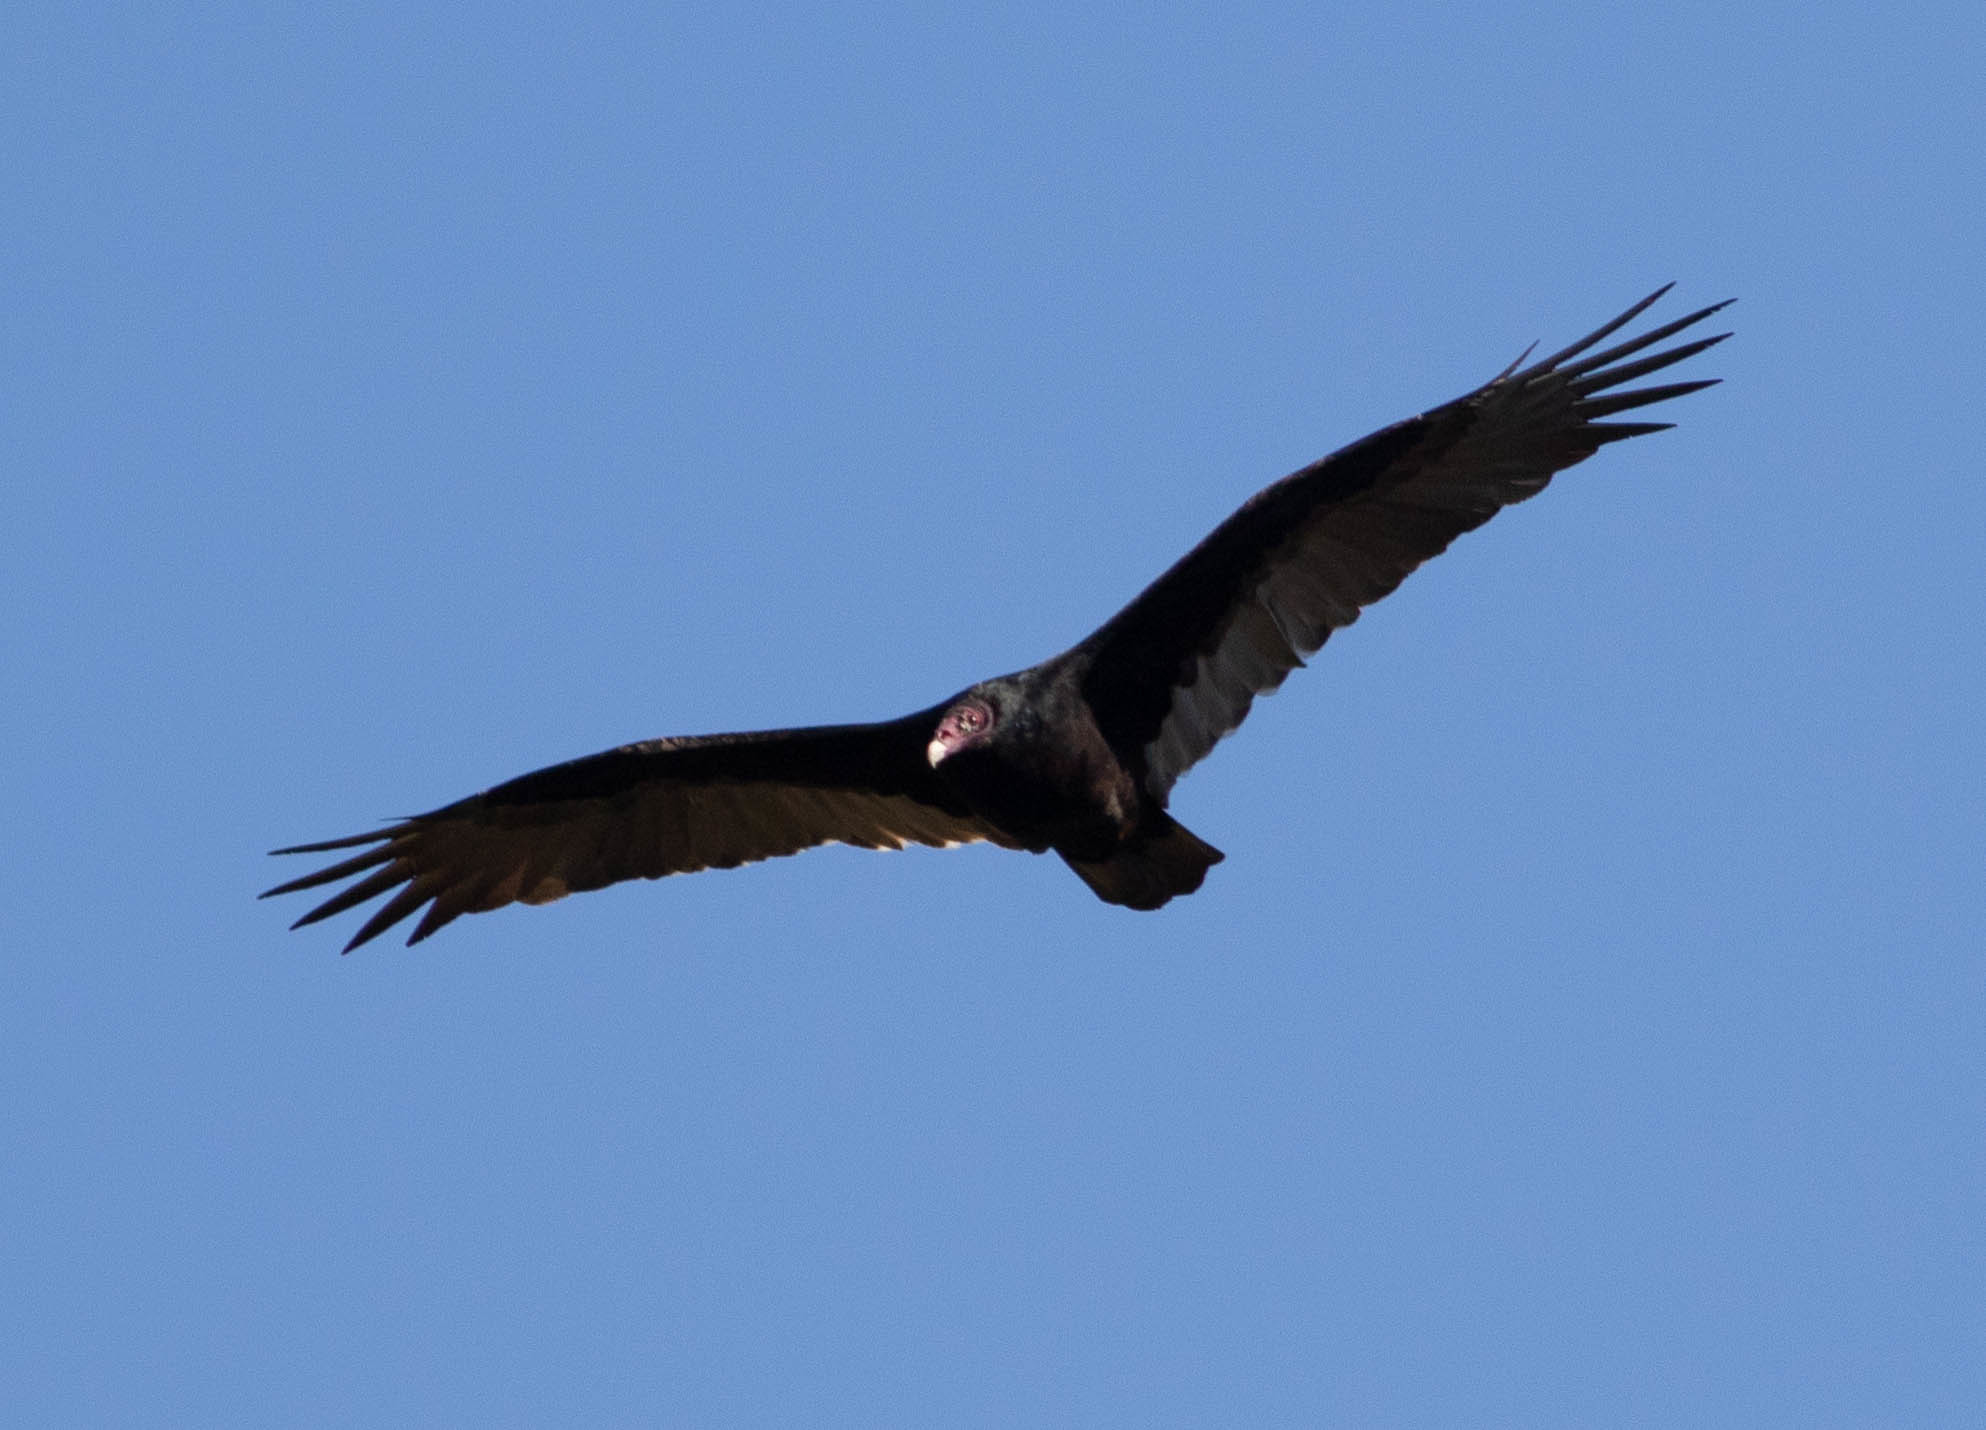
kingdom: Animalia
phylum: Chordata
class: Aves
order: Accipitriformes
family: Cathartidae
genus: Cathartes
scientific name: Cathartes aura
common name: Turkey vulture
